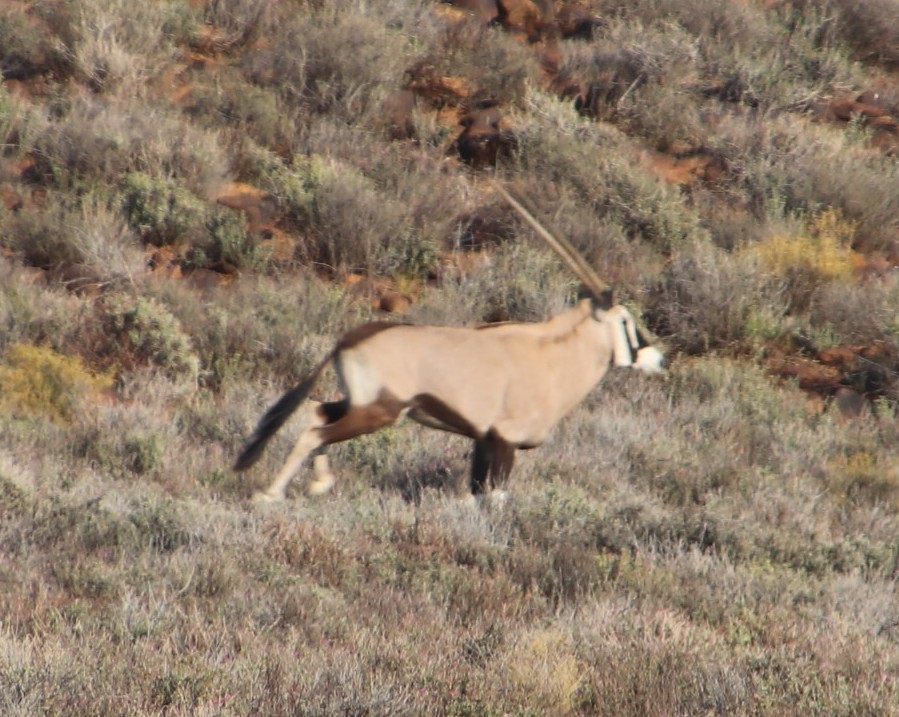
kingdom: Animalia
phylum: Chordata
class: Mammalia
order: Artiodactyla
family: Bovidae
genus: Oryx
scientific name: Oryx gazella
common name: Gemsbok
